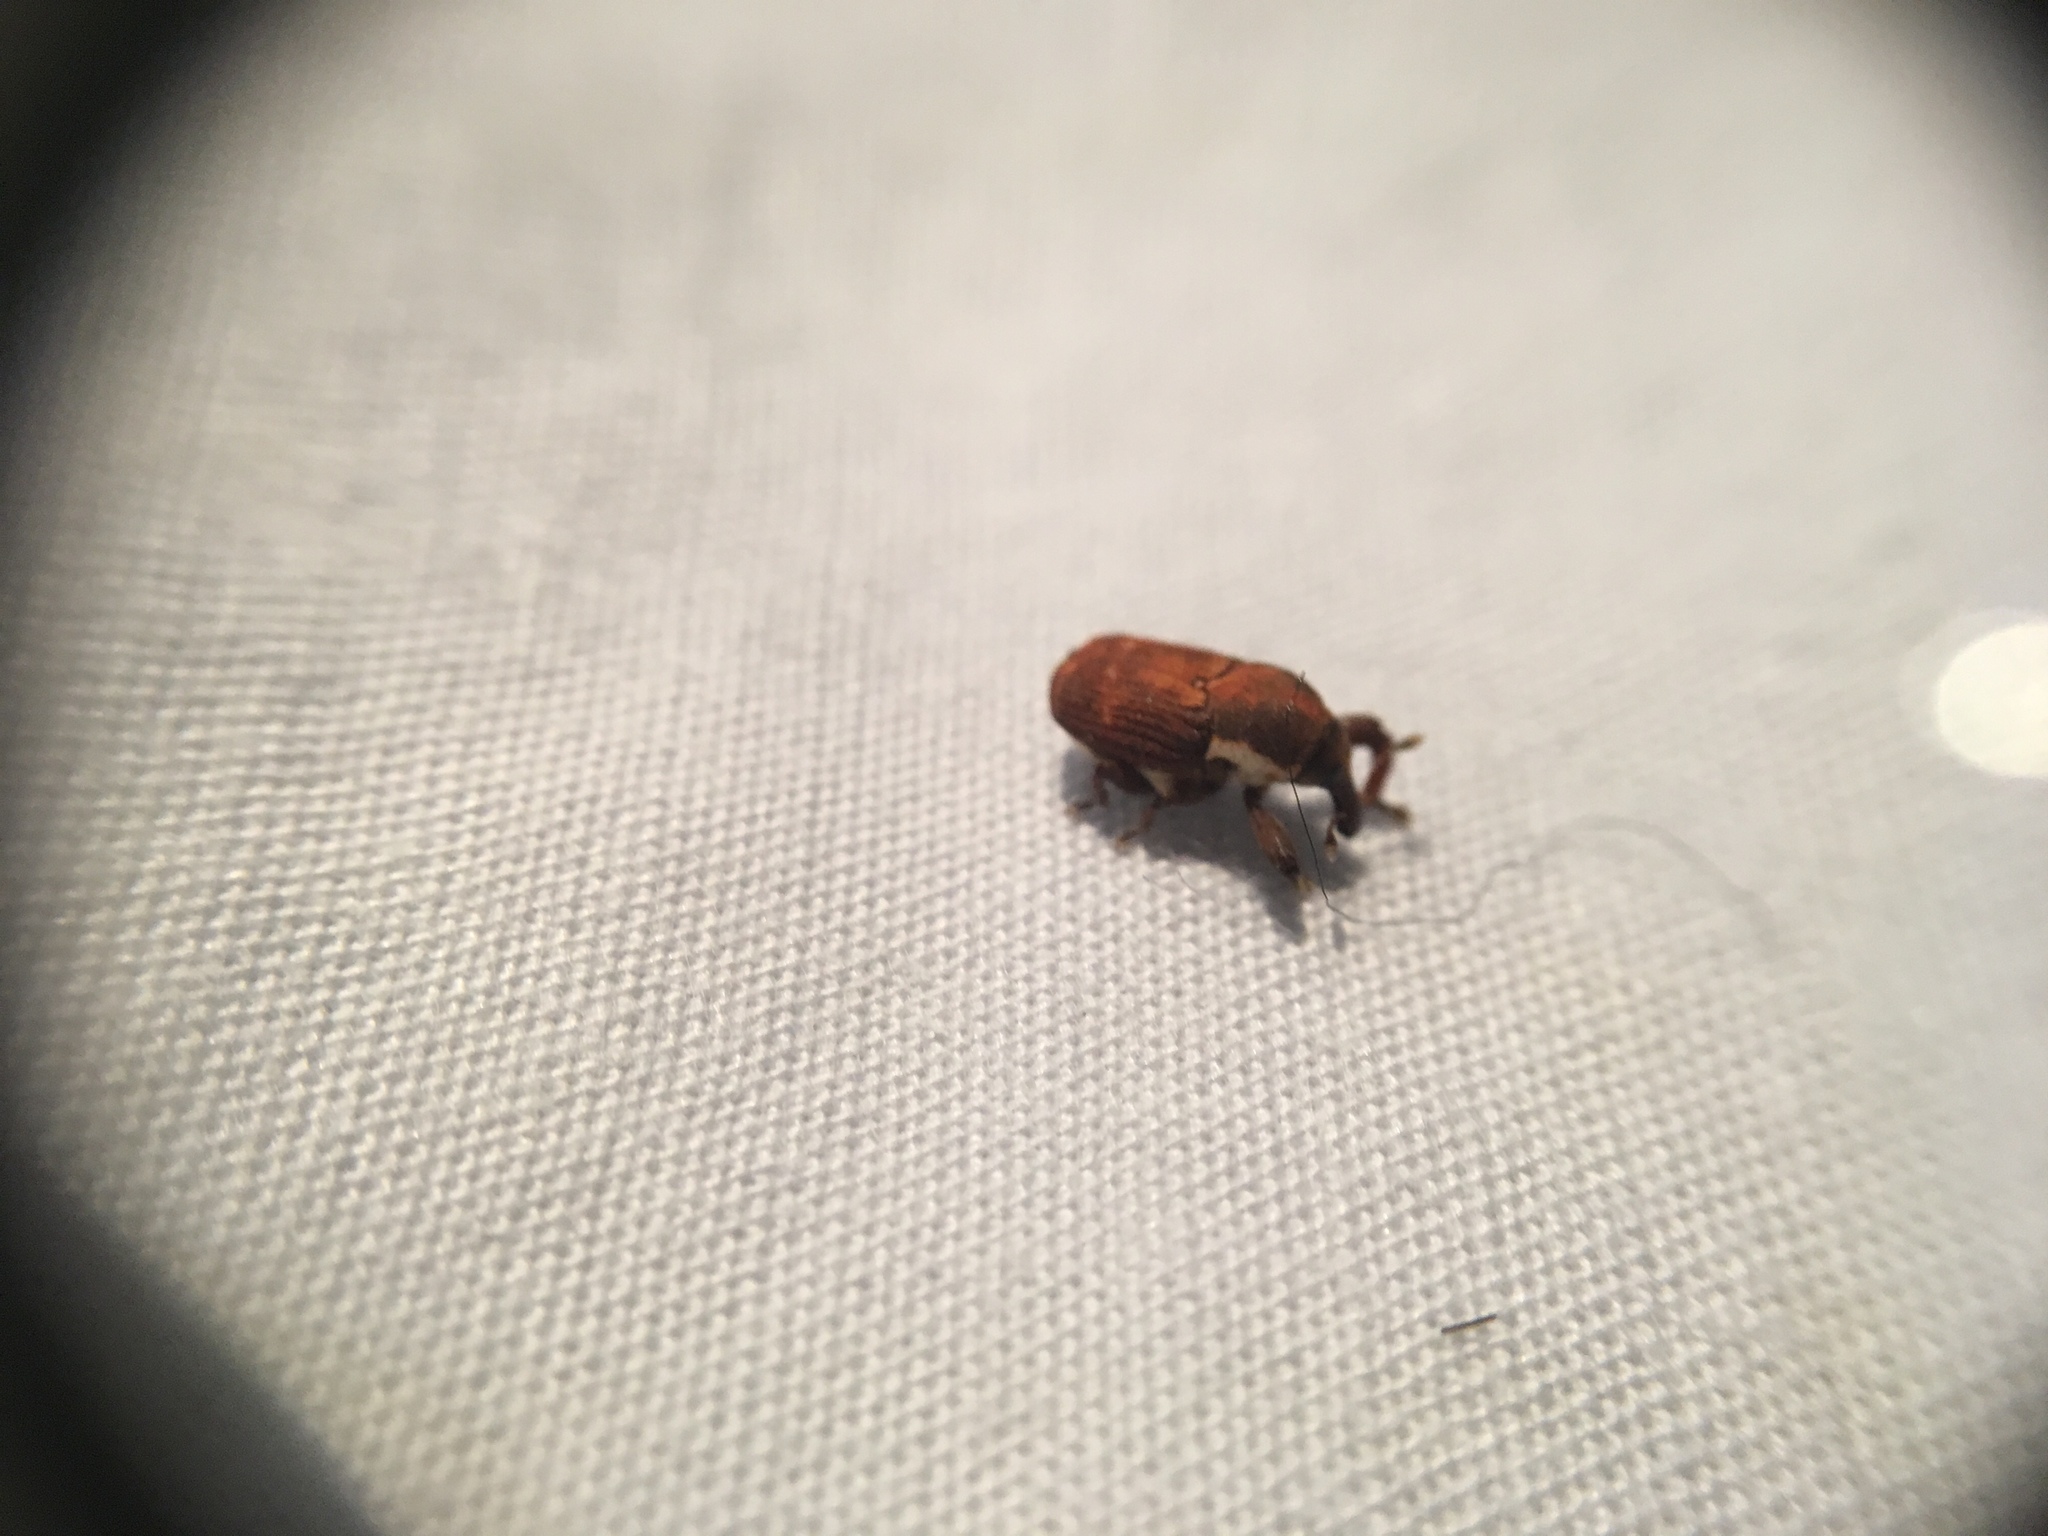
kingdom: Animalia
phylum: Arthropoda
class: Insecta
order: Coleoptera
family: Curculionidae
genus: Neolaemosaccus
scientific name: Neolaemosaccus thoreyi
